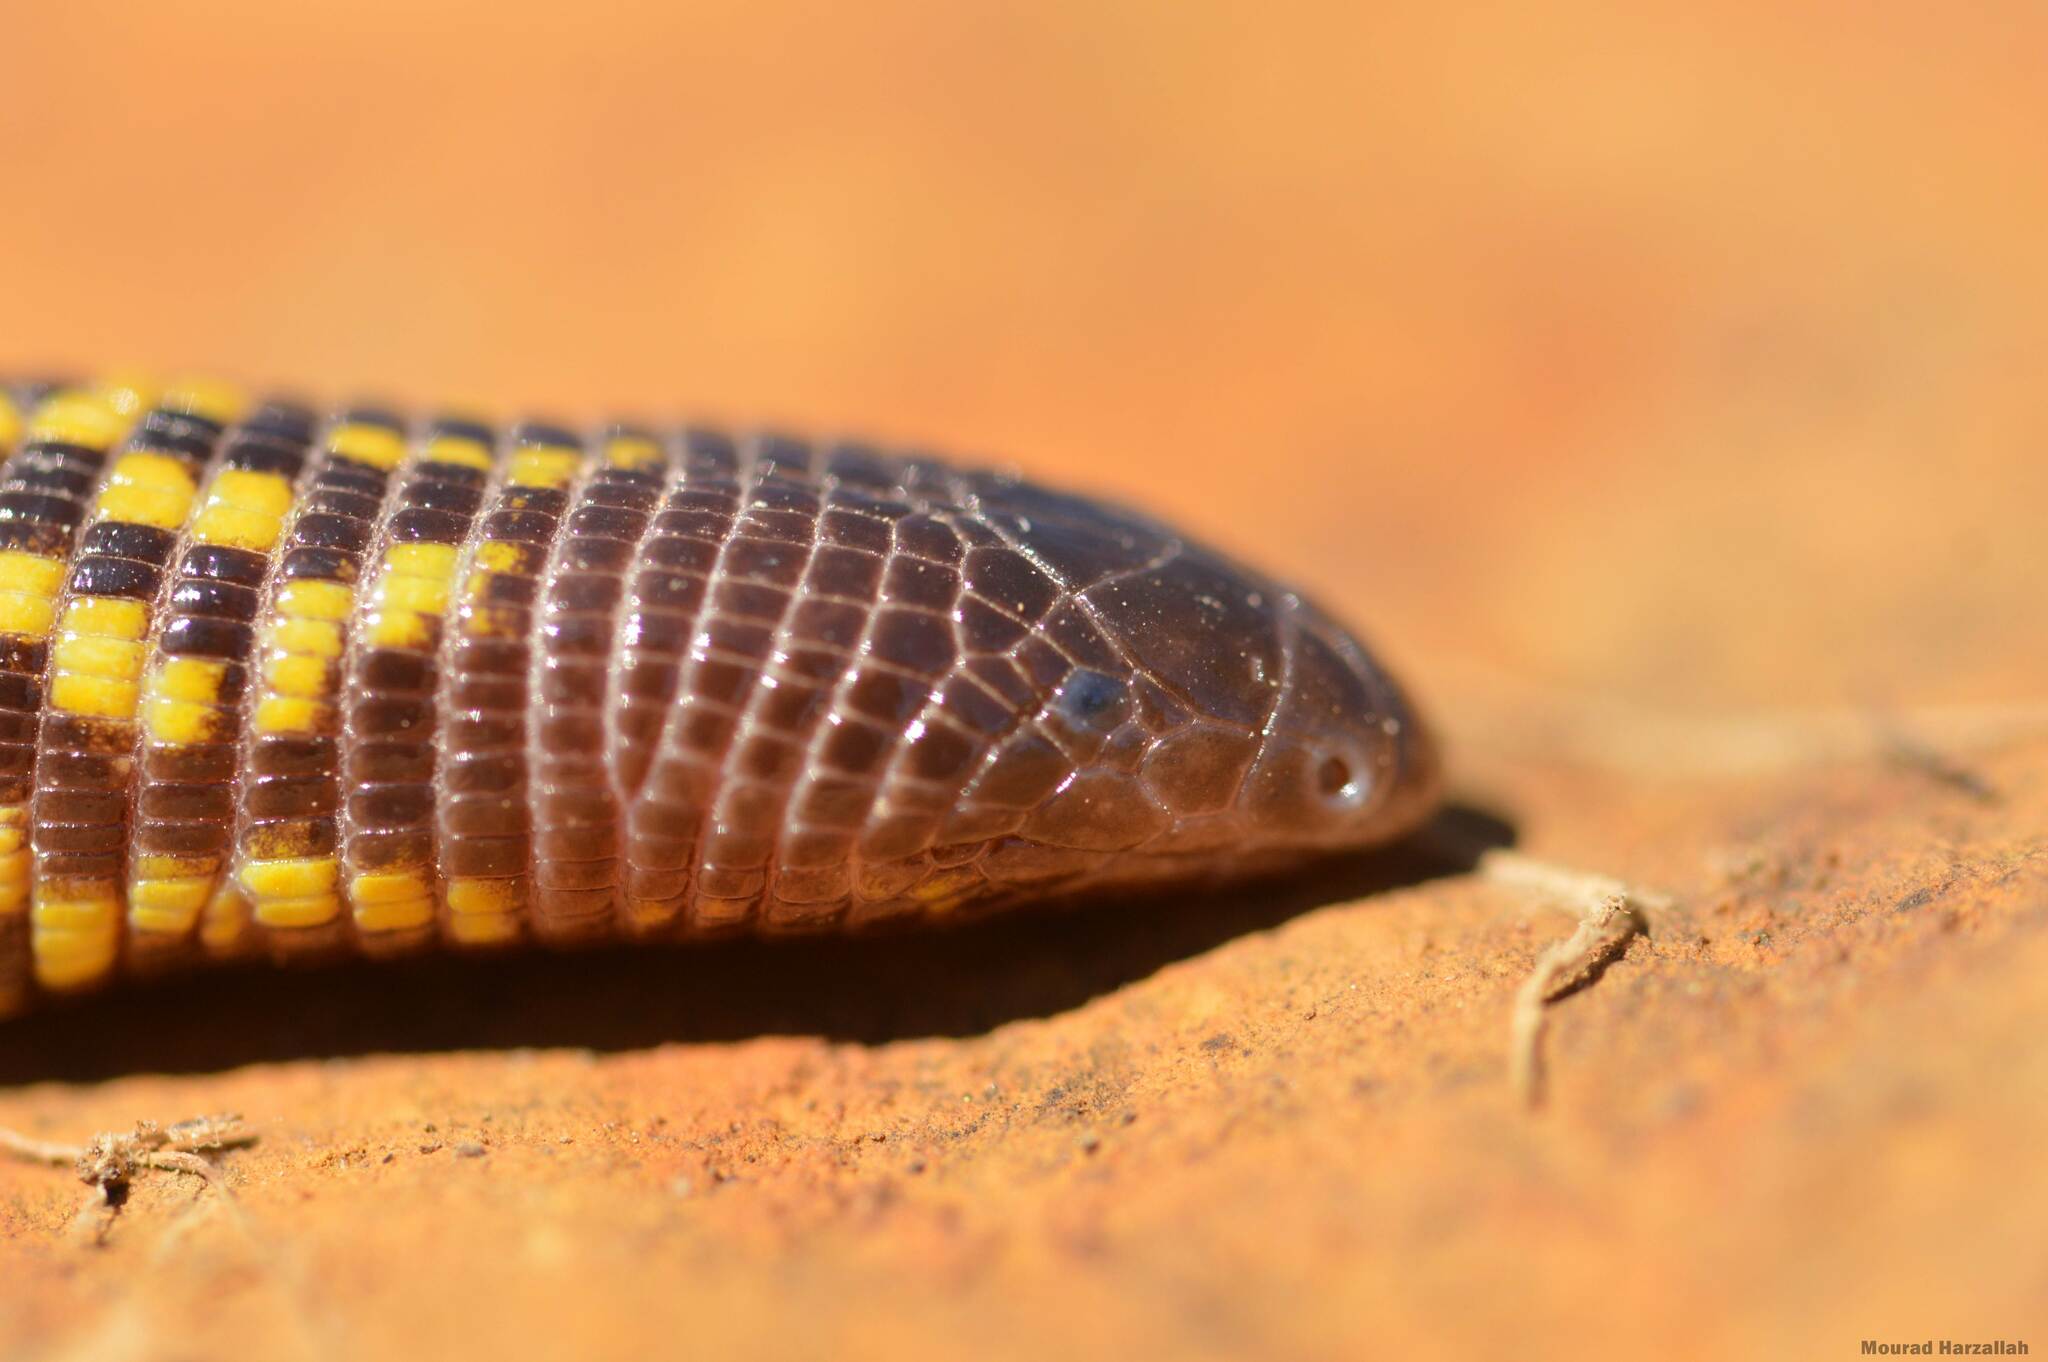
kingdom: Animalia
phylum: Chordata
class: Squamata
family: Trogonophidae
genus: Trogonophis
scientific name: Trogonophis wiegmanni
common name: Checkerboard worm lizard
